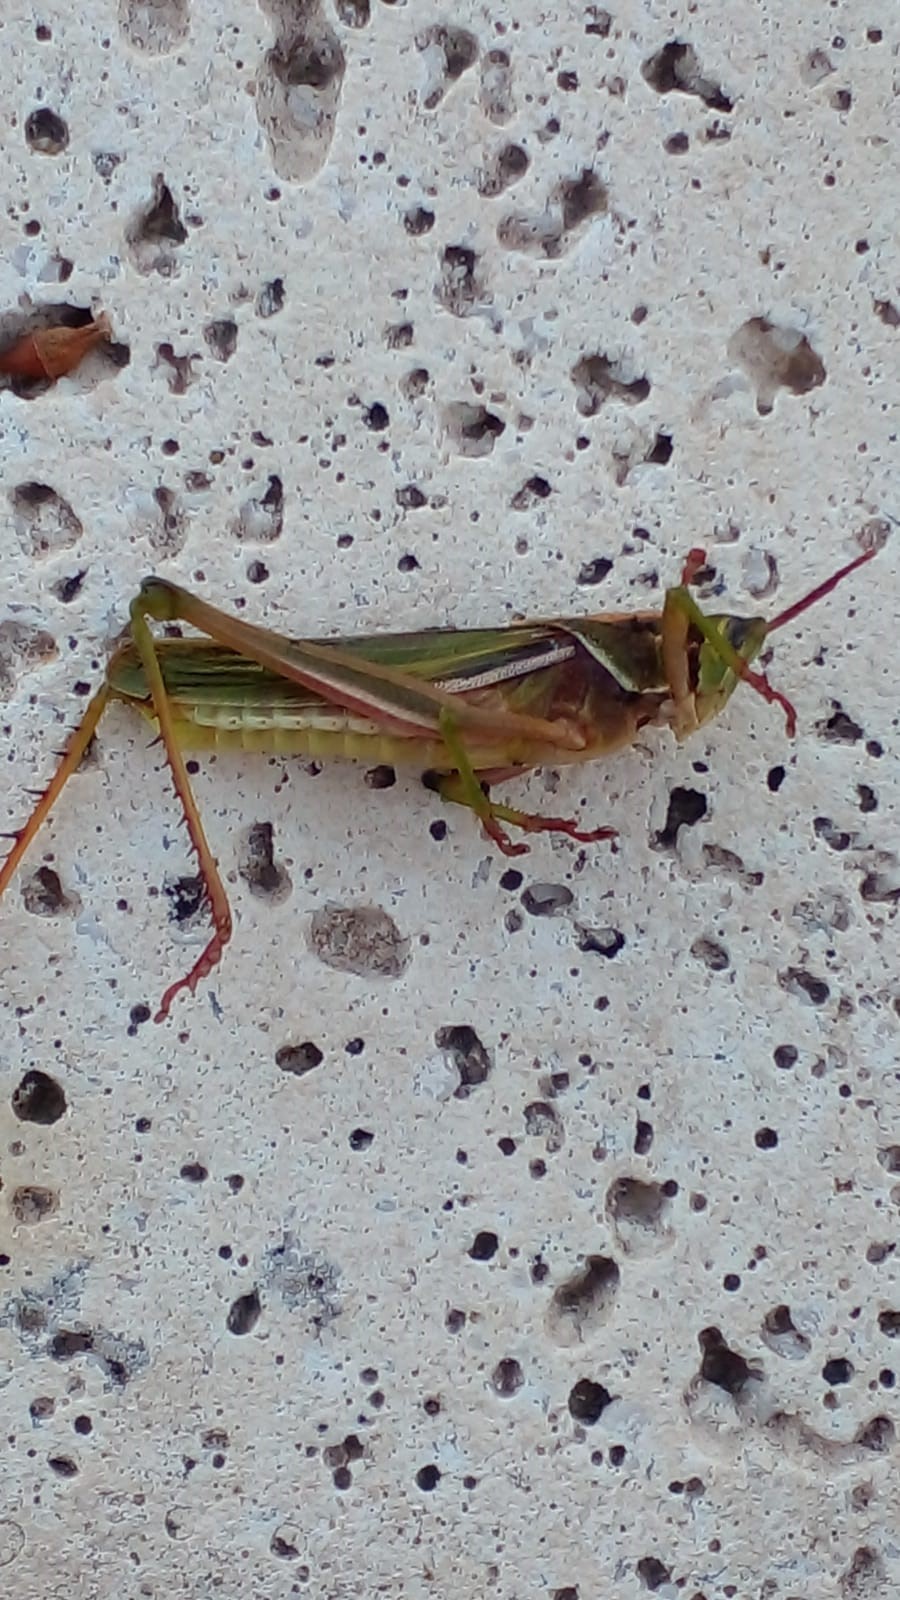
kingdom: Animalia
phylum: Arthropoda
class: Insecta
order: Orthoptera
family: Romaleidae
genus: Staleochlora
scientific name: Staleochlora viridicata
